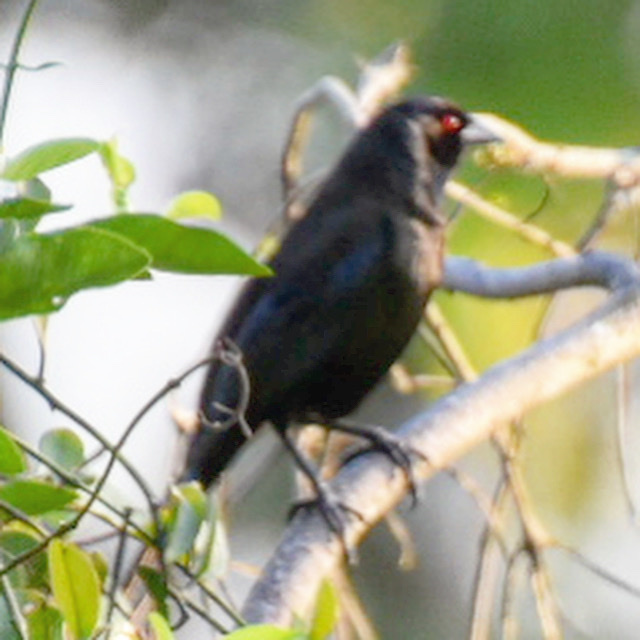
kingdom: Animalia
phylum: Chordata
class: Aves
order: Passeriformes
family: Icteridae
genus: Molothrus
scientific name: Molothrus aeneus
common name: Bronzed cowbird
